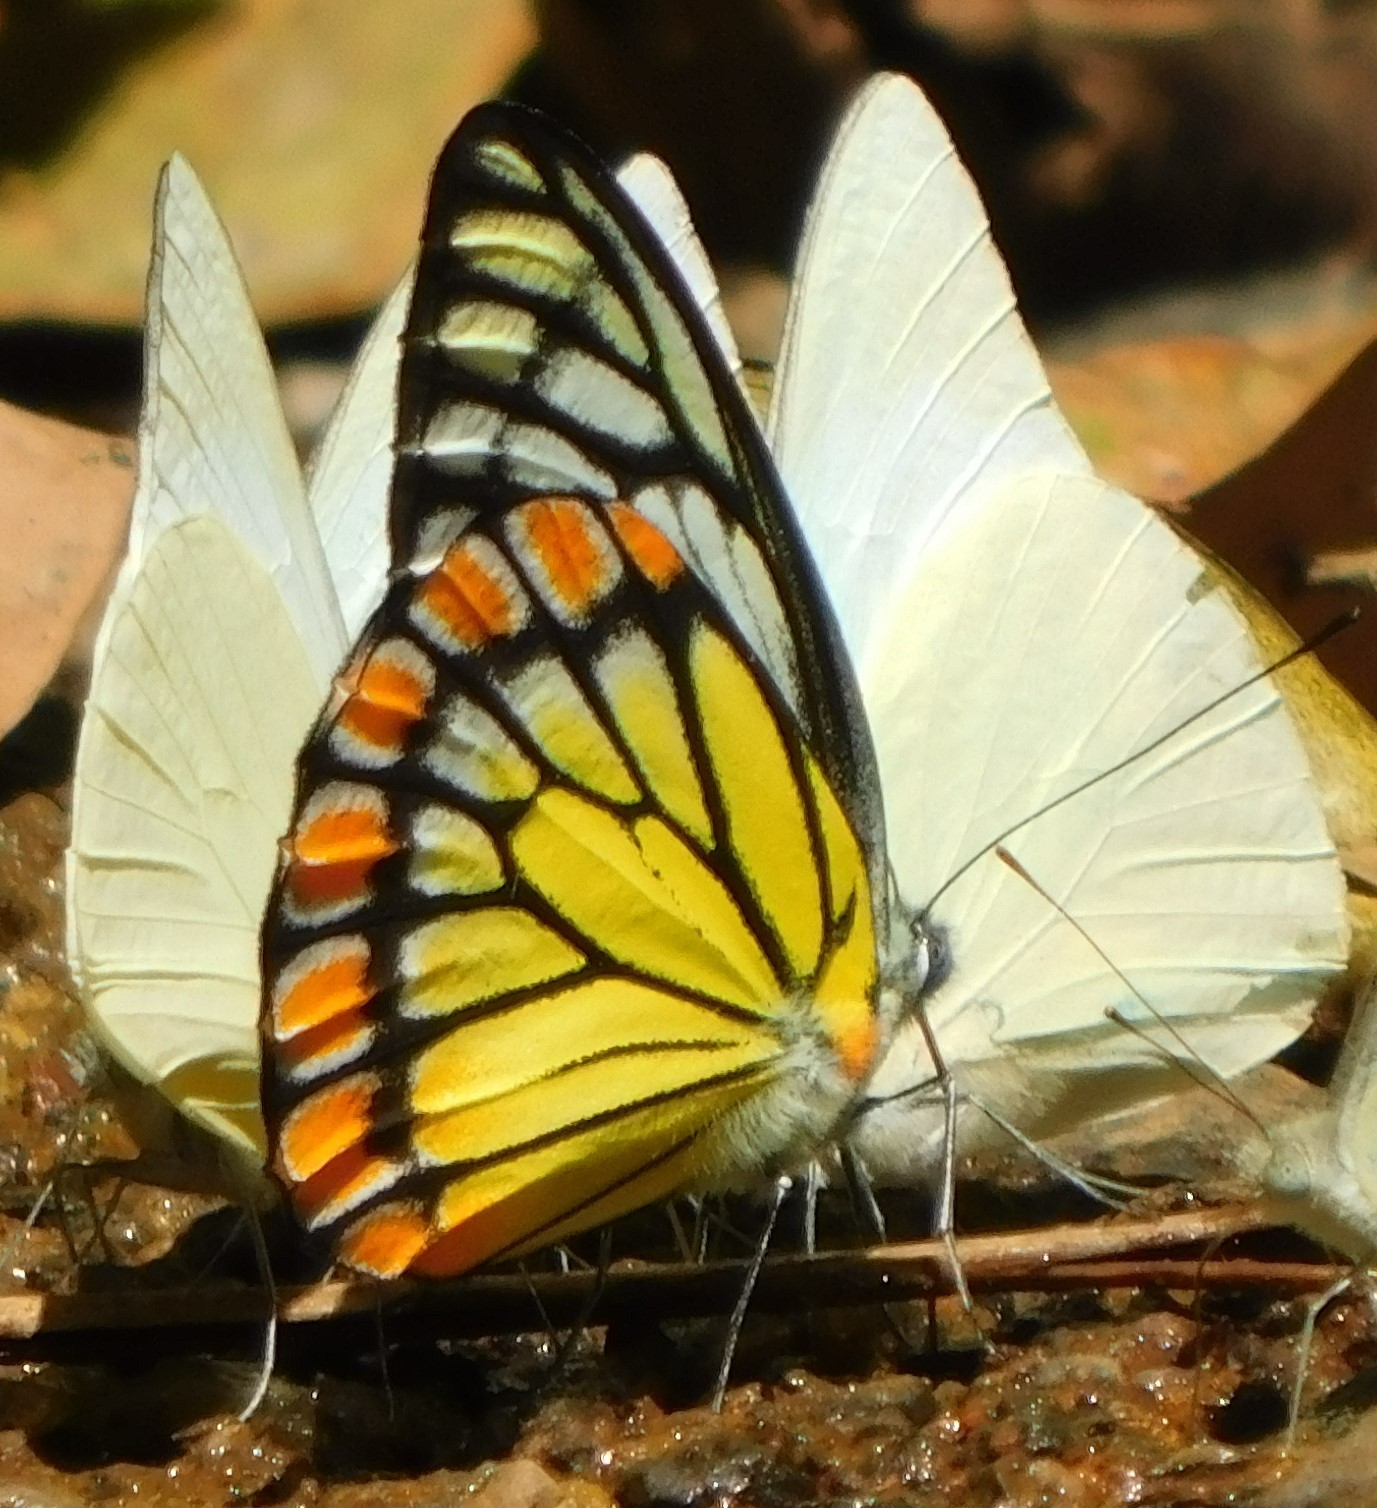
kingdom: Animalia
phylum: Arthropoda
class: Insecta
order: Lepidoptera
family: Pieridae
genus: Prioneris
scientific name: Prioneris sita
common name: Painted sawtooth
